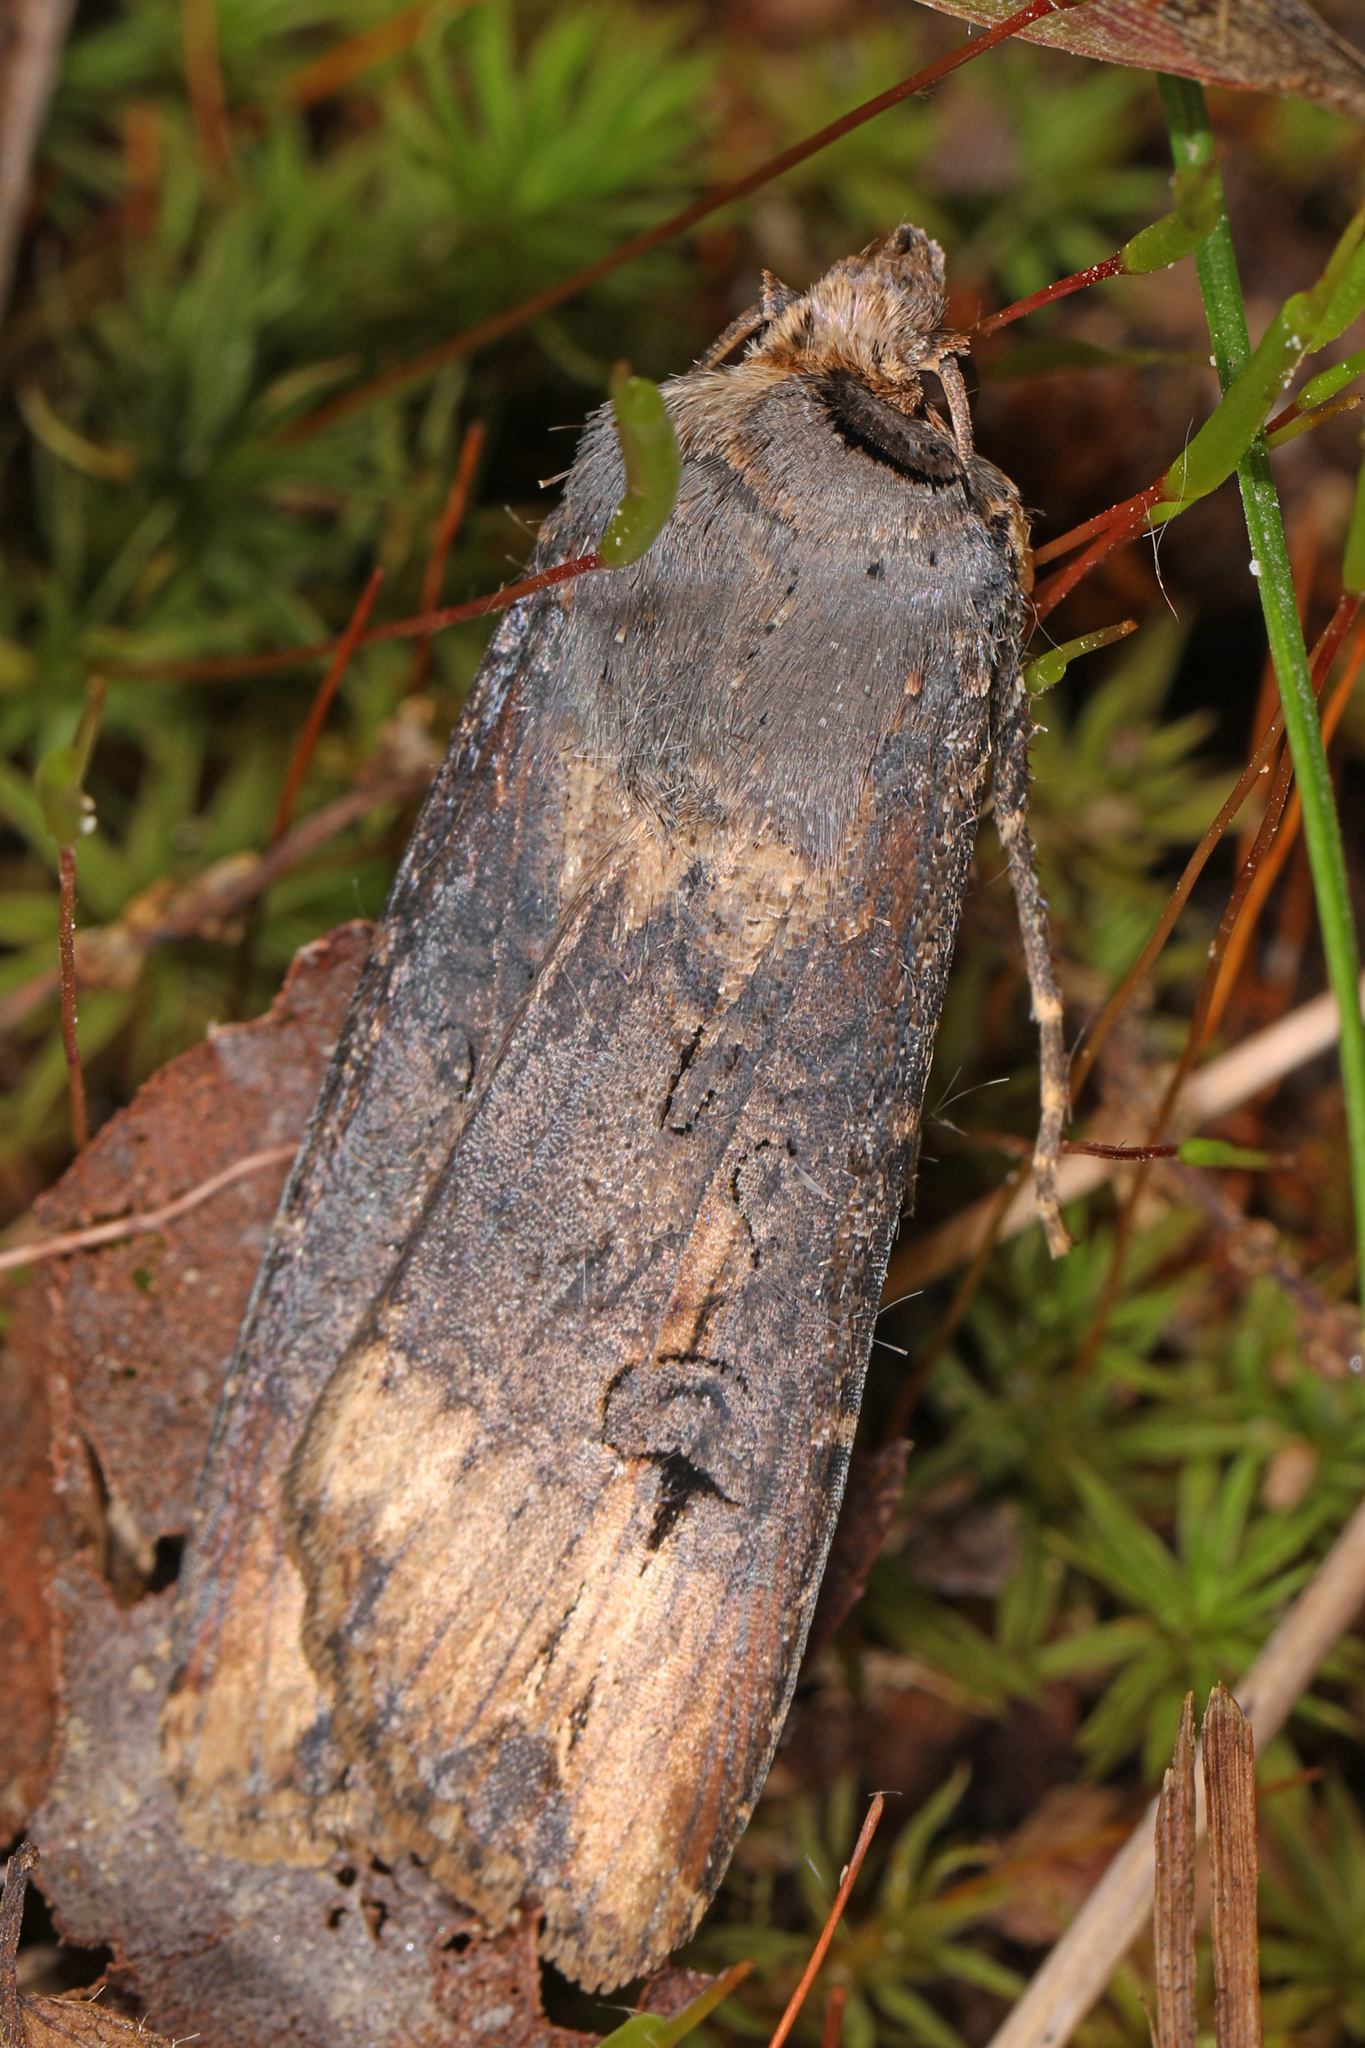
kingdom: Animalia
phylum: Arthropoda
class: Insecta
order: Lepidoptera
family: Noctuidae
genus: Agrotis
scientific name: Agrotis ipsilon
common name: Dark sword-grass
